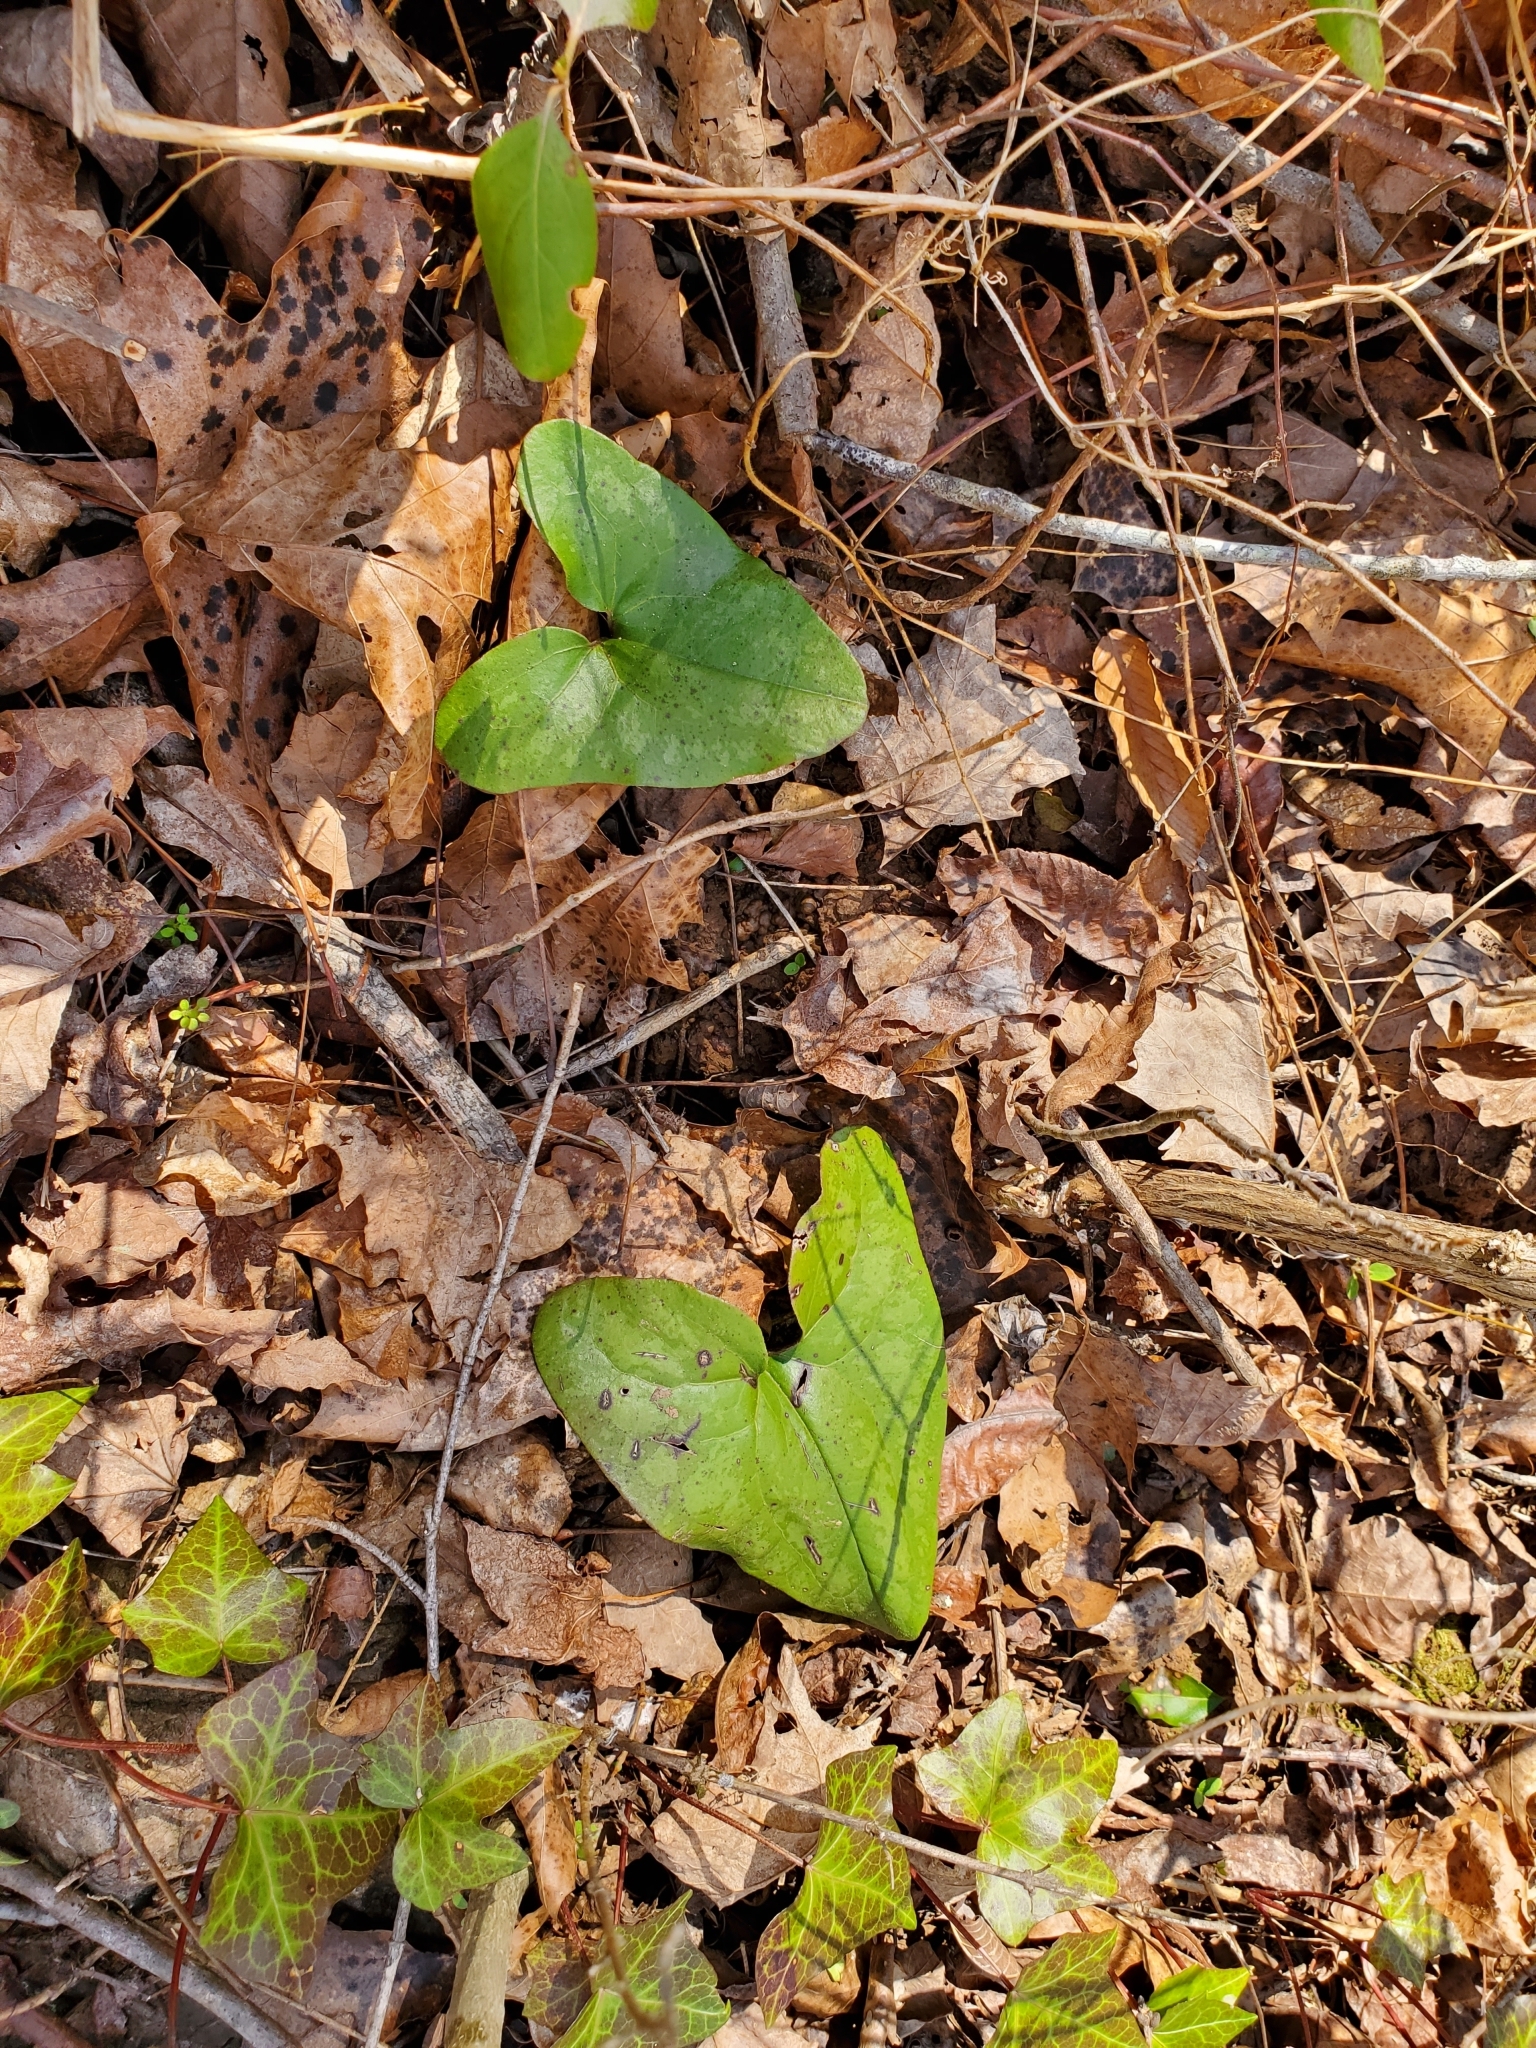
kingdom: Plantae
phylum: Tracheophyta
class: Magnoliopsida
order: Piperales
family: Aristolochiaceae
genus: Hexastylis
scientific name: Hexastylis arifolia
